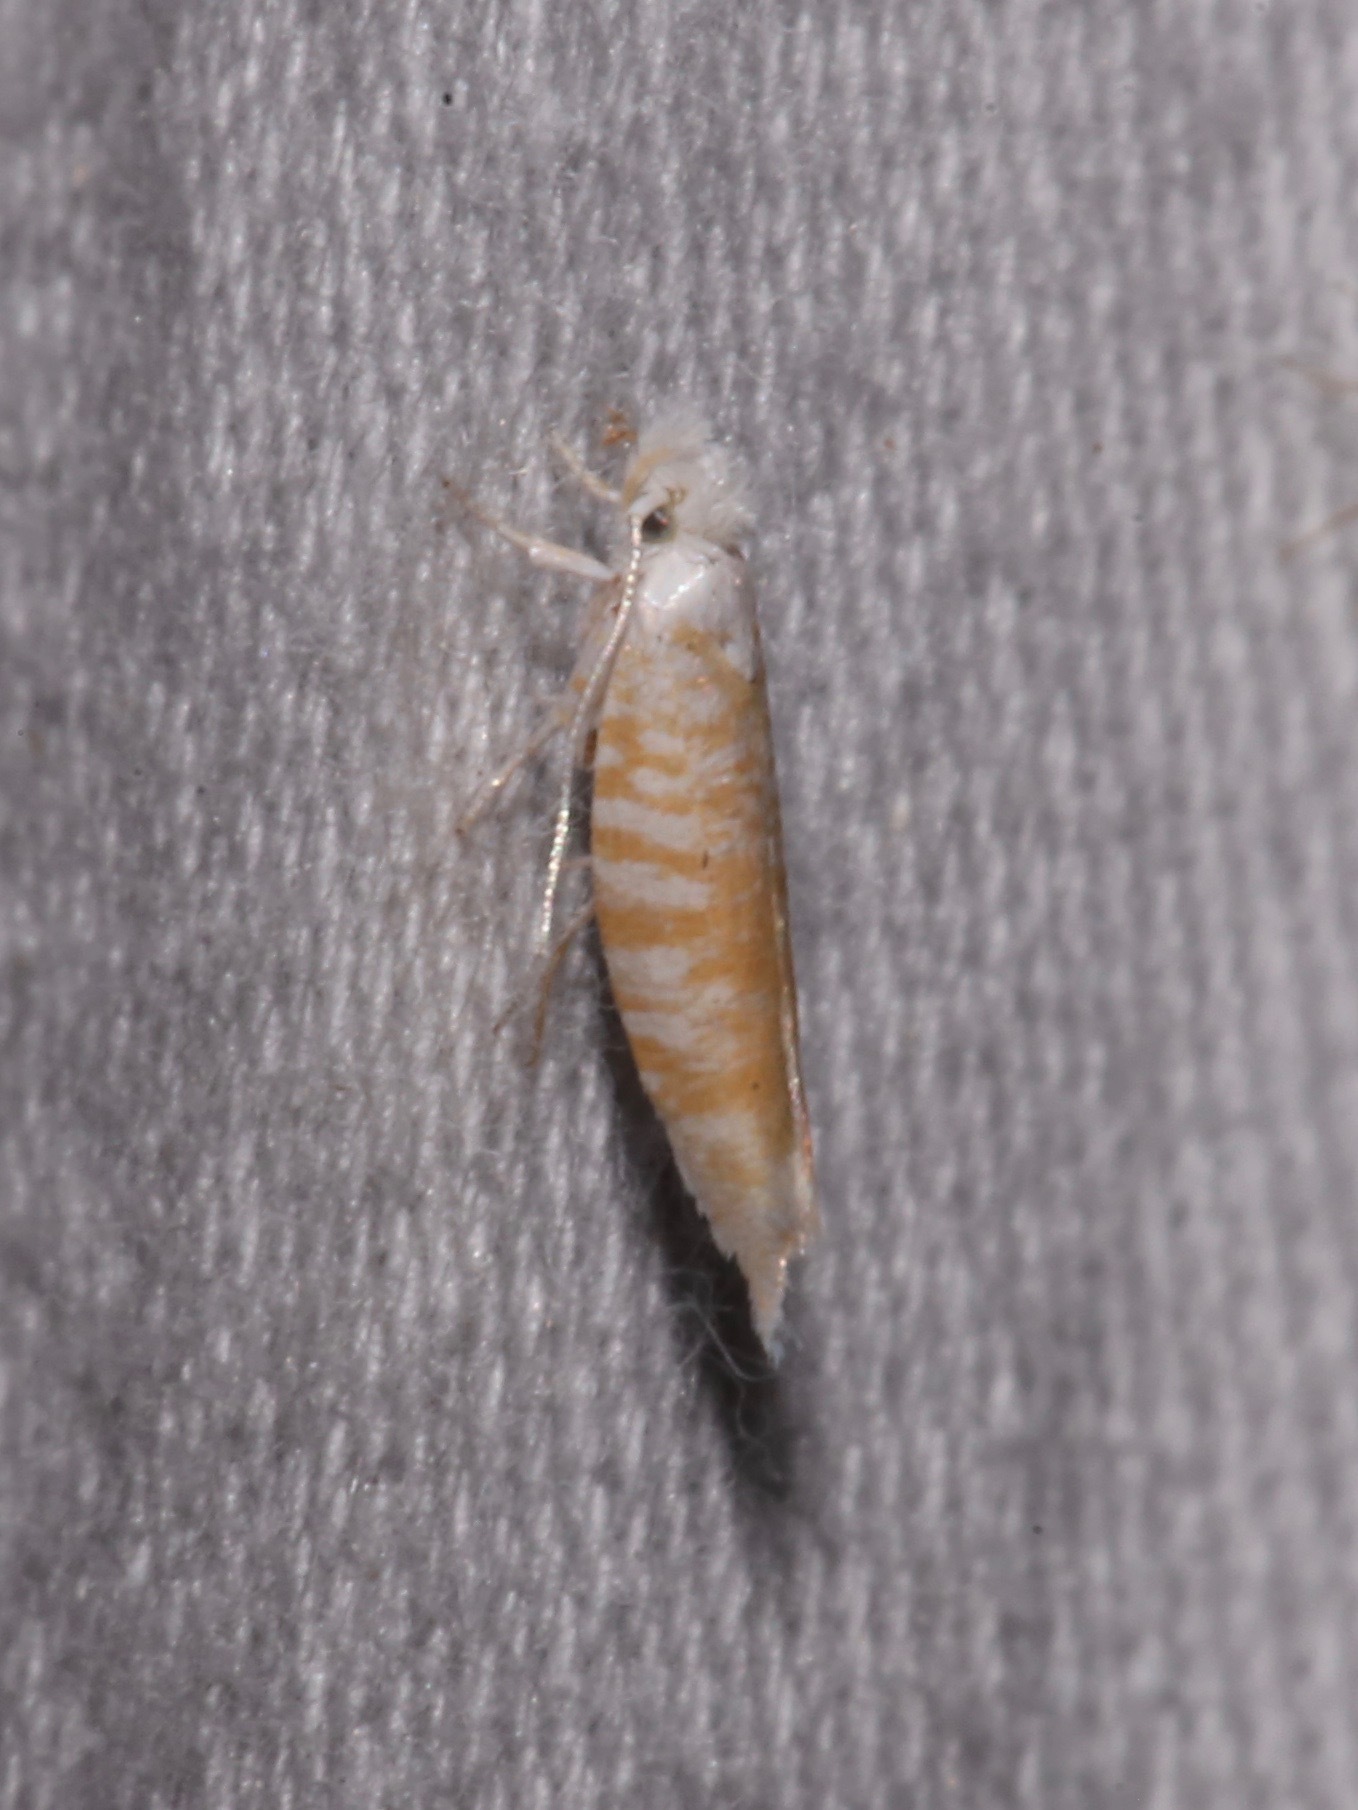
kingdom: Animalia
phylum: Arthropoda
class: Insecta
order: Lepidoptera
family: Yponomeutidae
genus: Zelleria
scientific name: Zelleria retiniella
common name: Brindled zelleria
